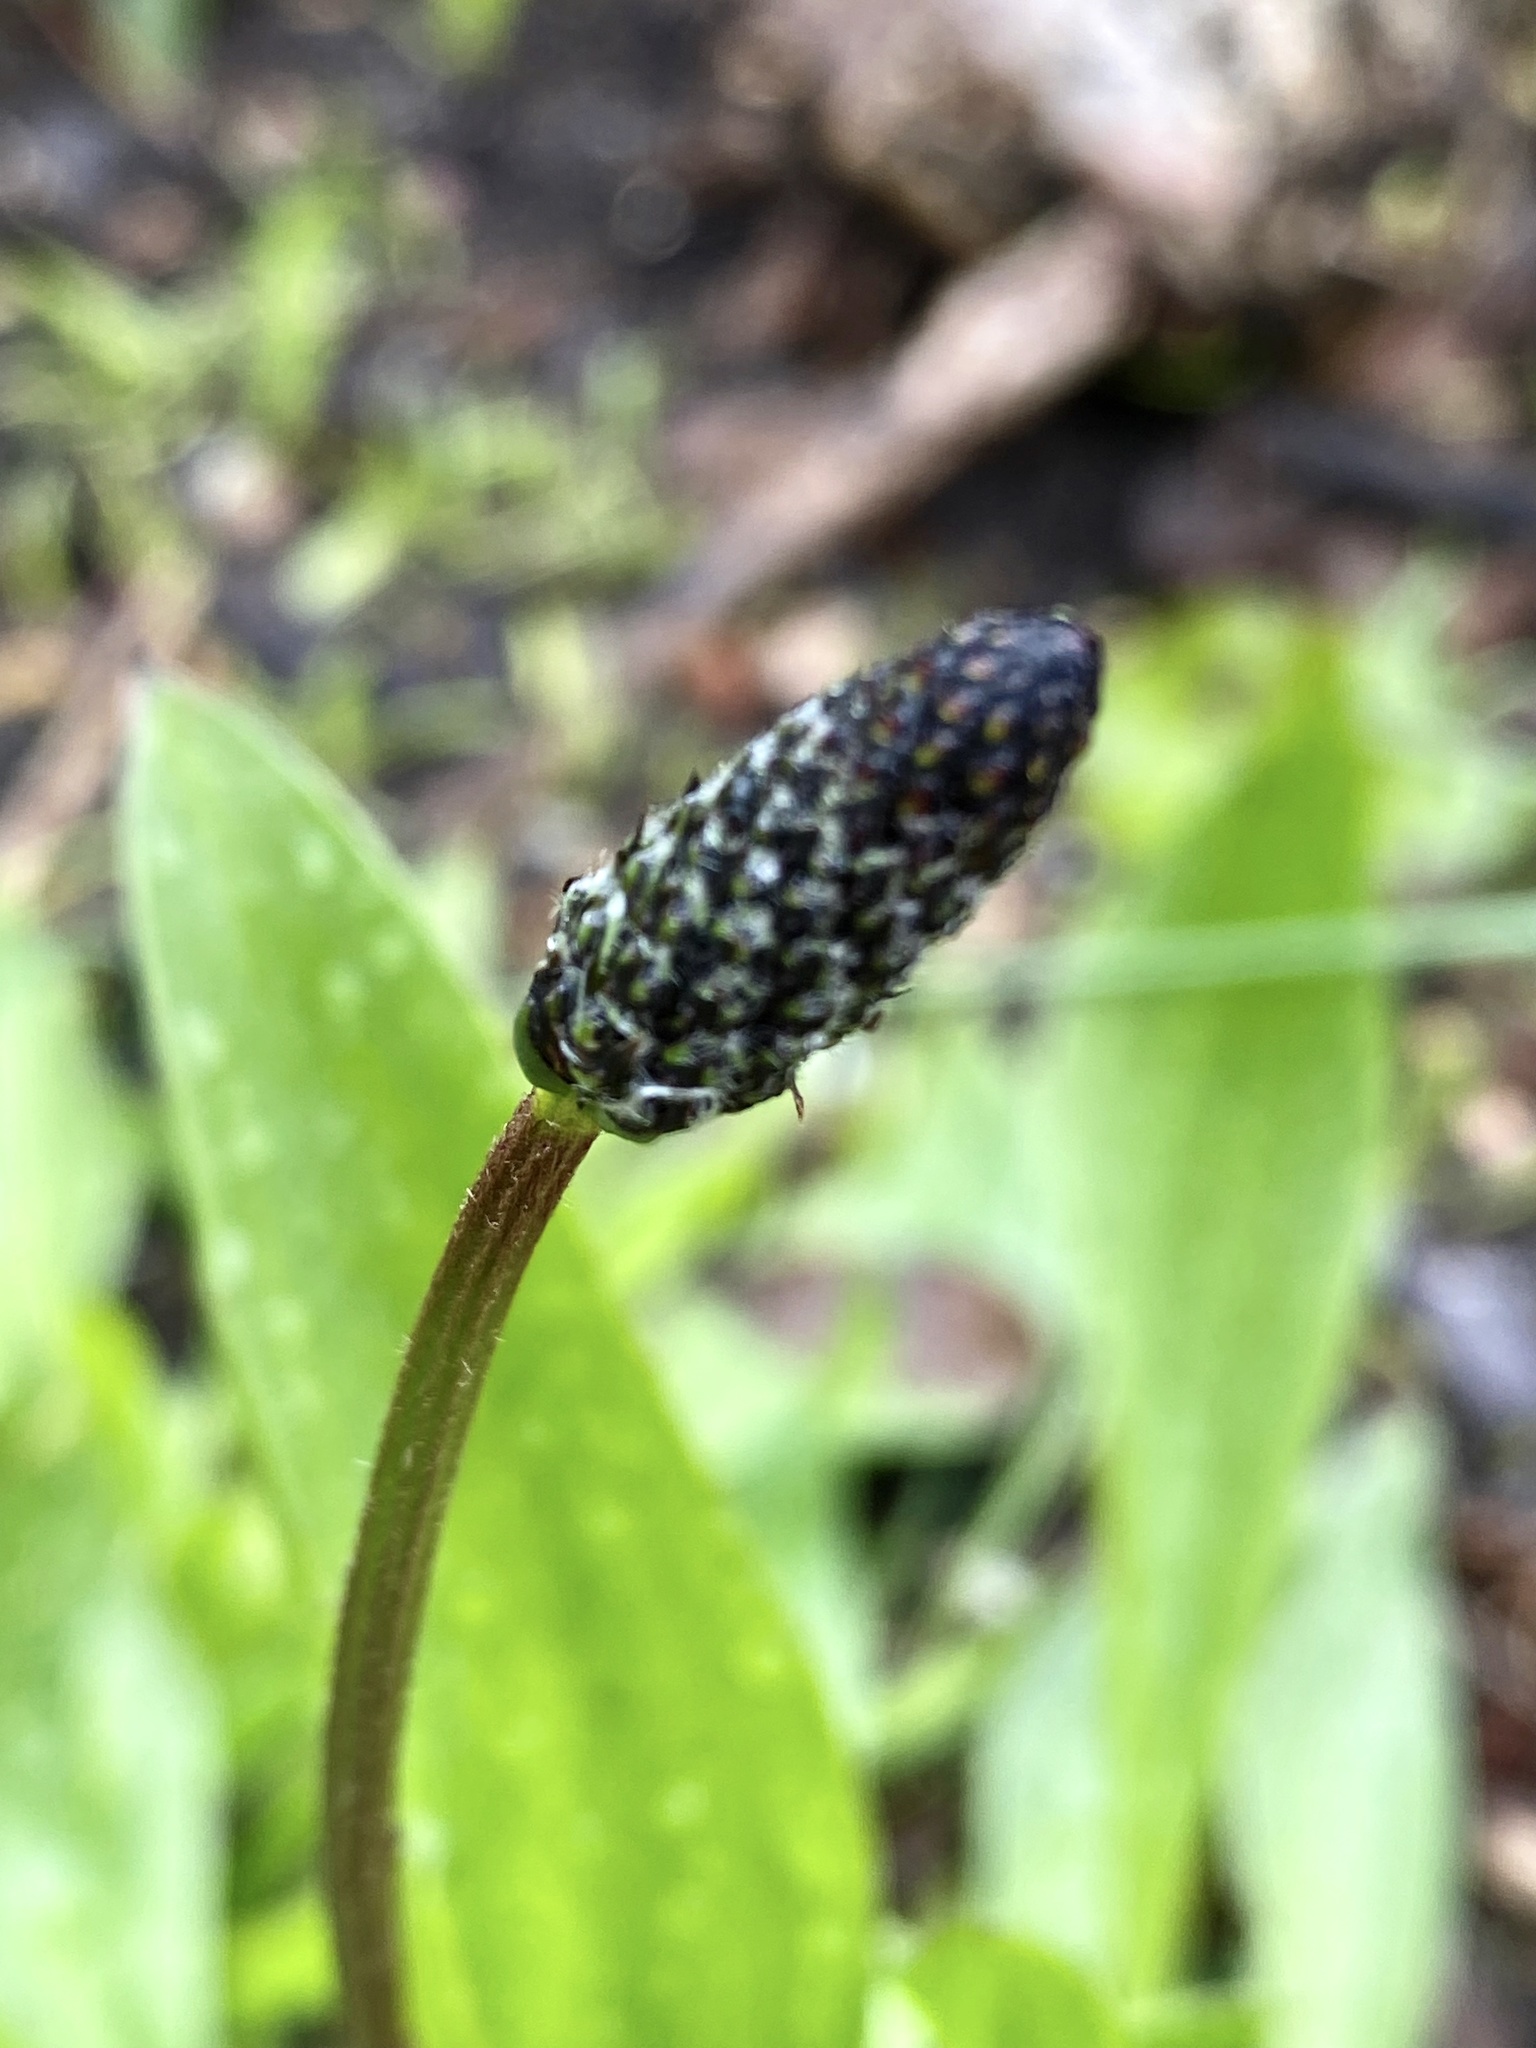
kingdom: Plantae
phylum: Tracheophyta
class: Magnoliopsida
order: Lamiales
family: Plantaginaceae
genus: Plantago
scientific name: Plantago lanceolata
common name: Ribwort plantain
